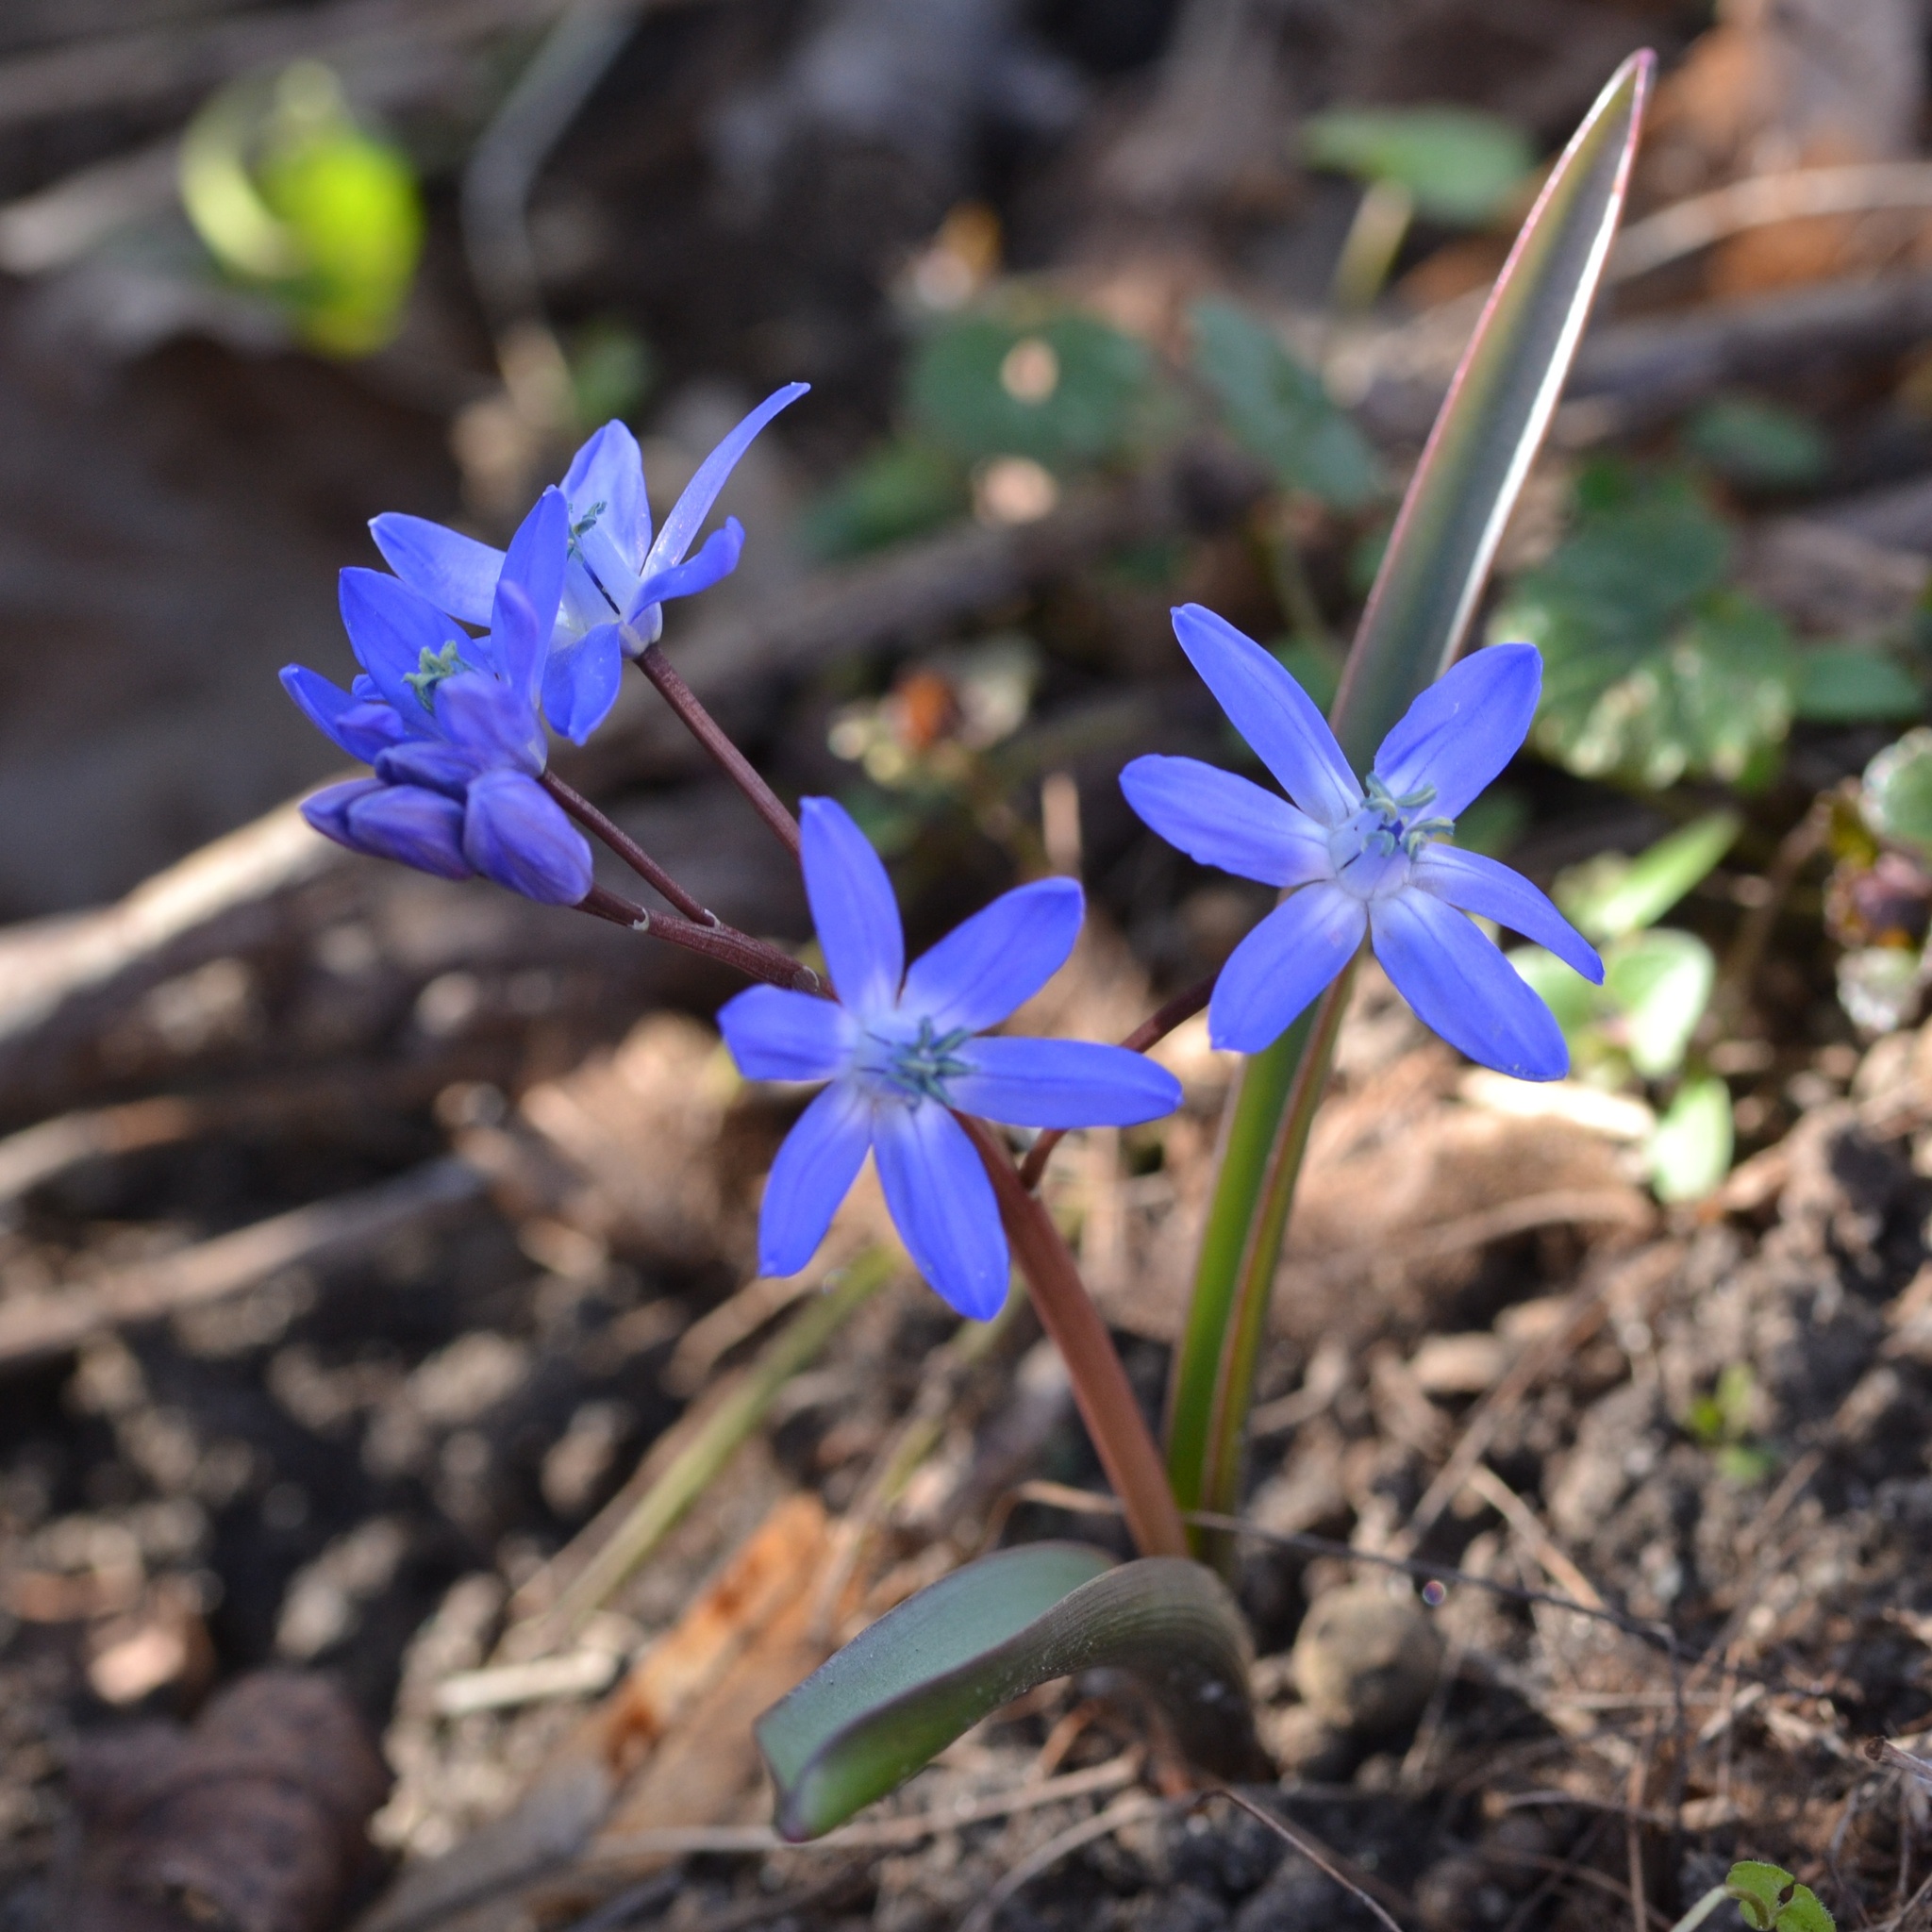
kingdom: Plantae
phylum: Tracheophyta
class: Liliopsida
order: Asparagales
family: Asparagaceae
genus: Scilla
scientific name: Scilla bifolia
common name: Alpine squill
